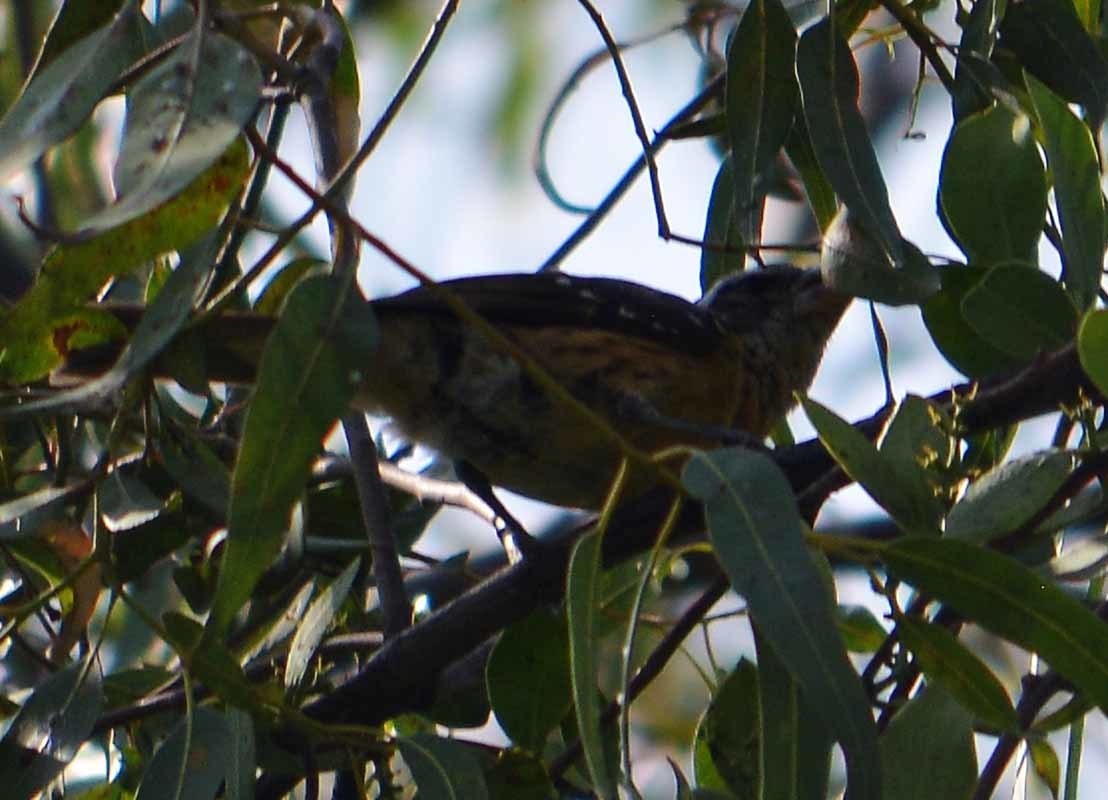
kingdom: Animalia
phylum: Chordata
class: Aves
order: Passeriformes
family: Cardinalidae
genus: Pheucticus
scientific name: Pheucticus melanocephalus
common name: Black-headed grosbeak
